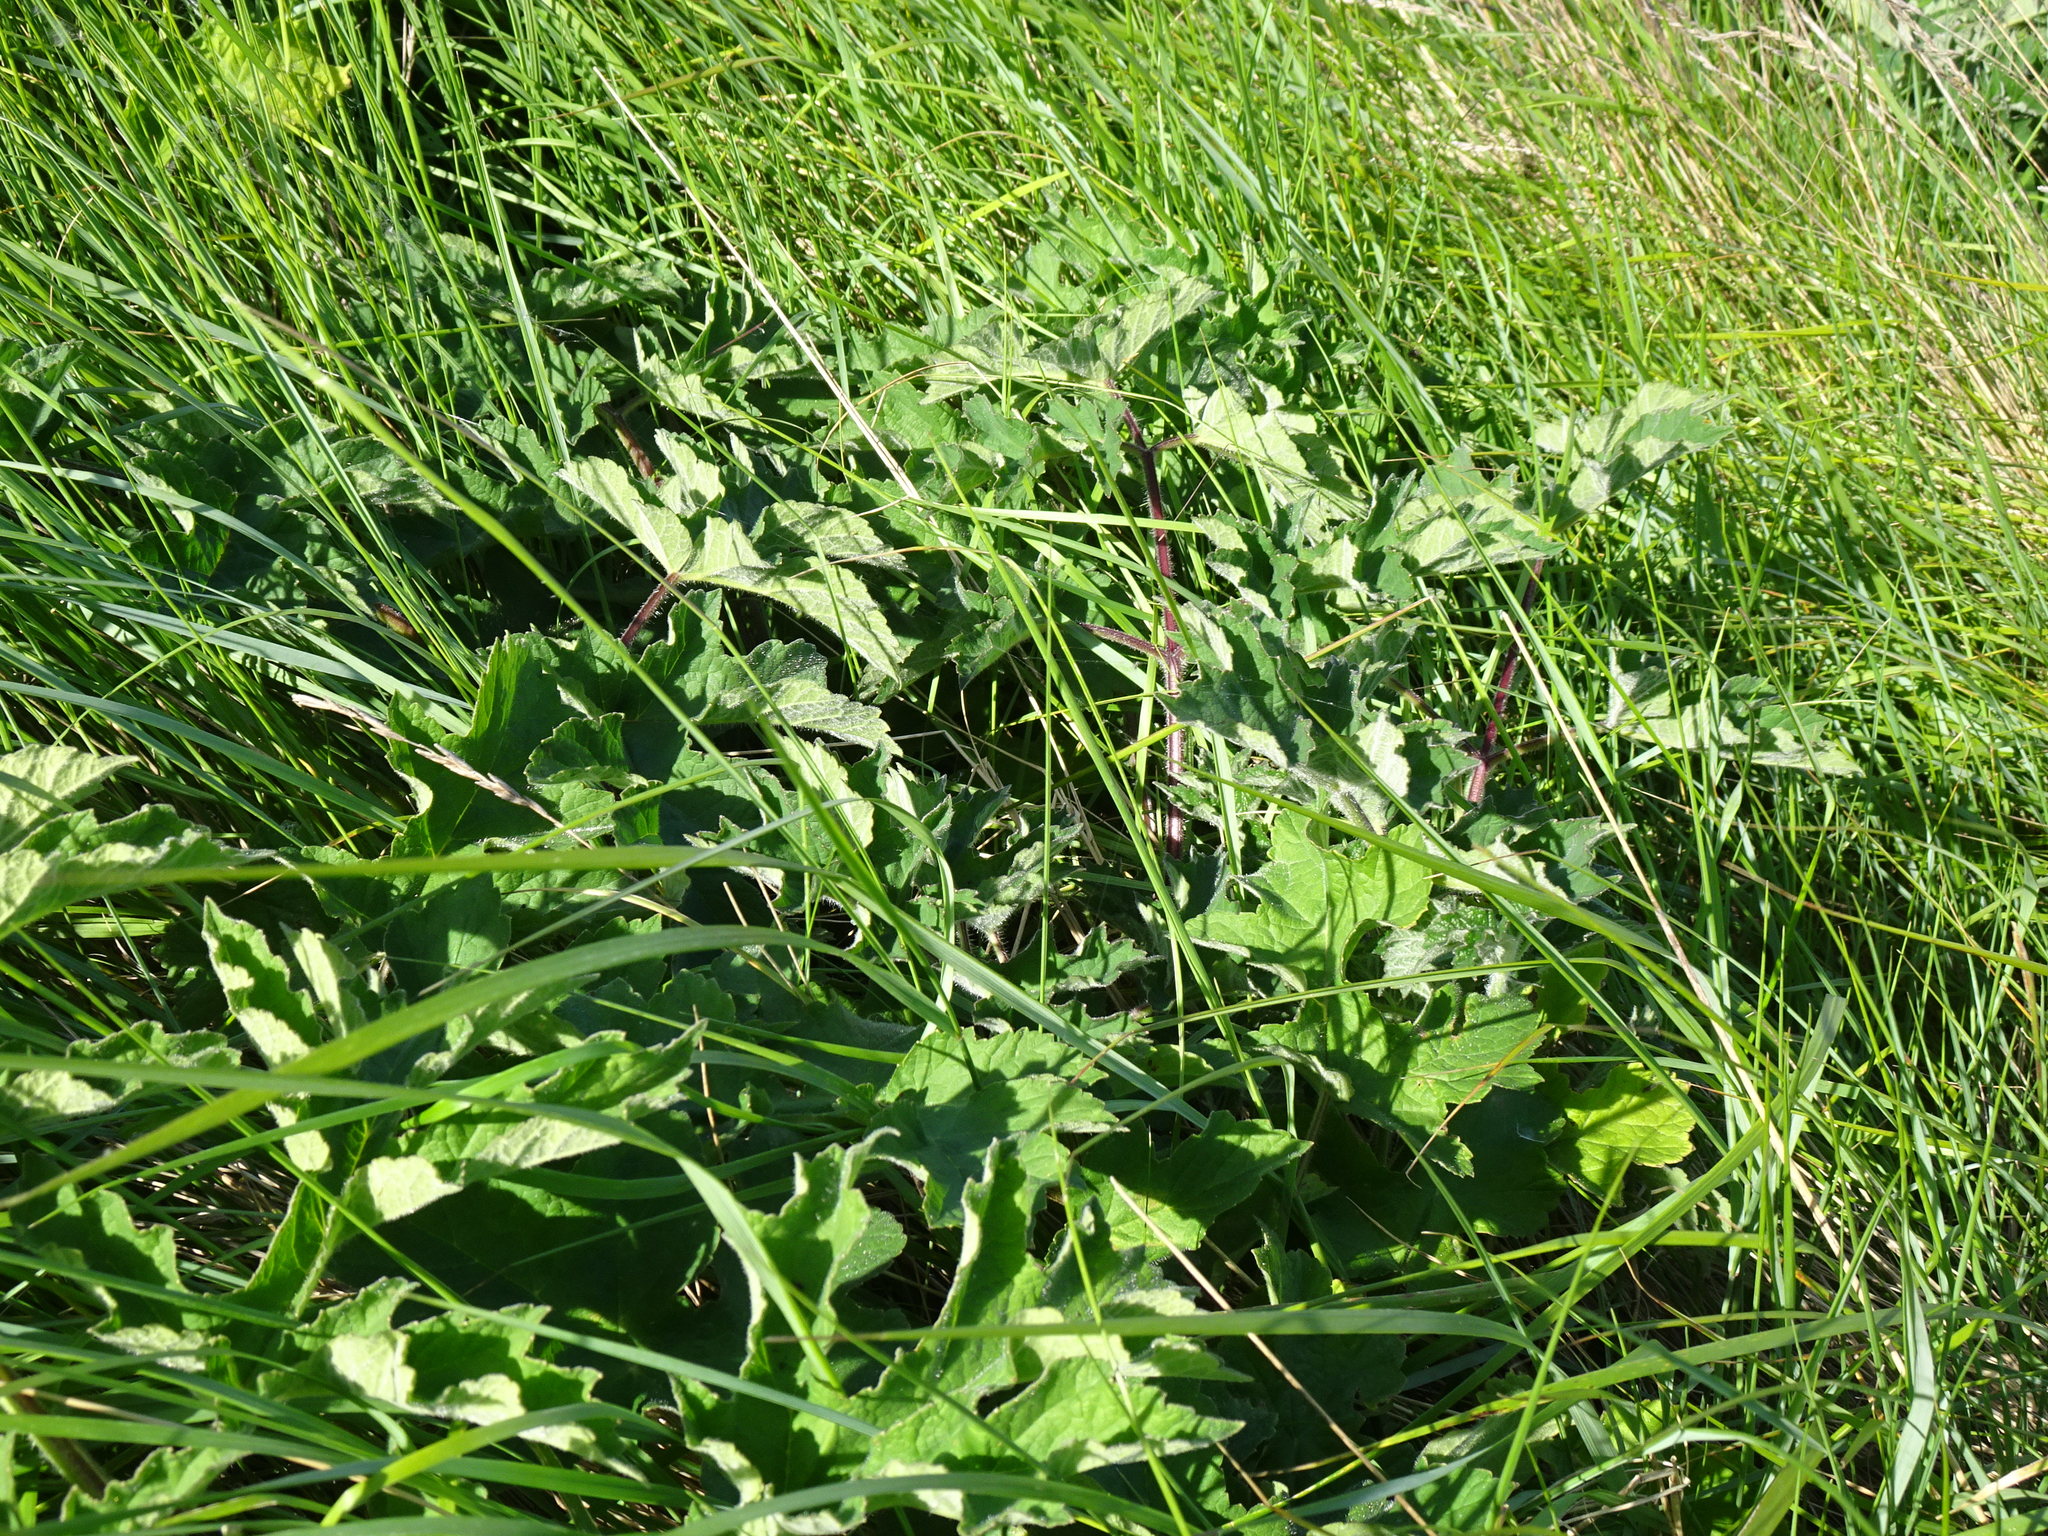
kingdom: Plantae
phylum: Tracheophyta
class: Magnoliopsida
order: Apiales
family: Apiaceae
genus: Heracleum
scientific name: Heracleum sphondylium
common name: Hogweed
